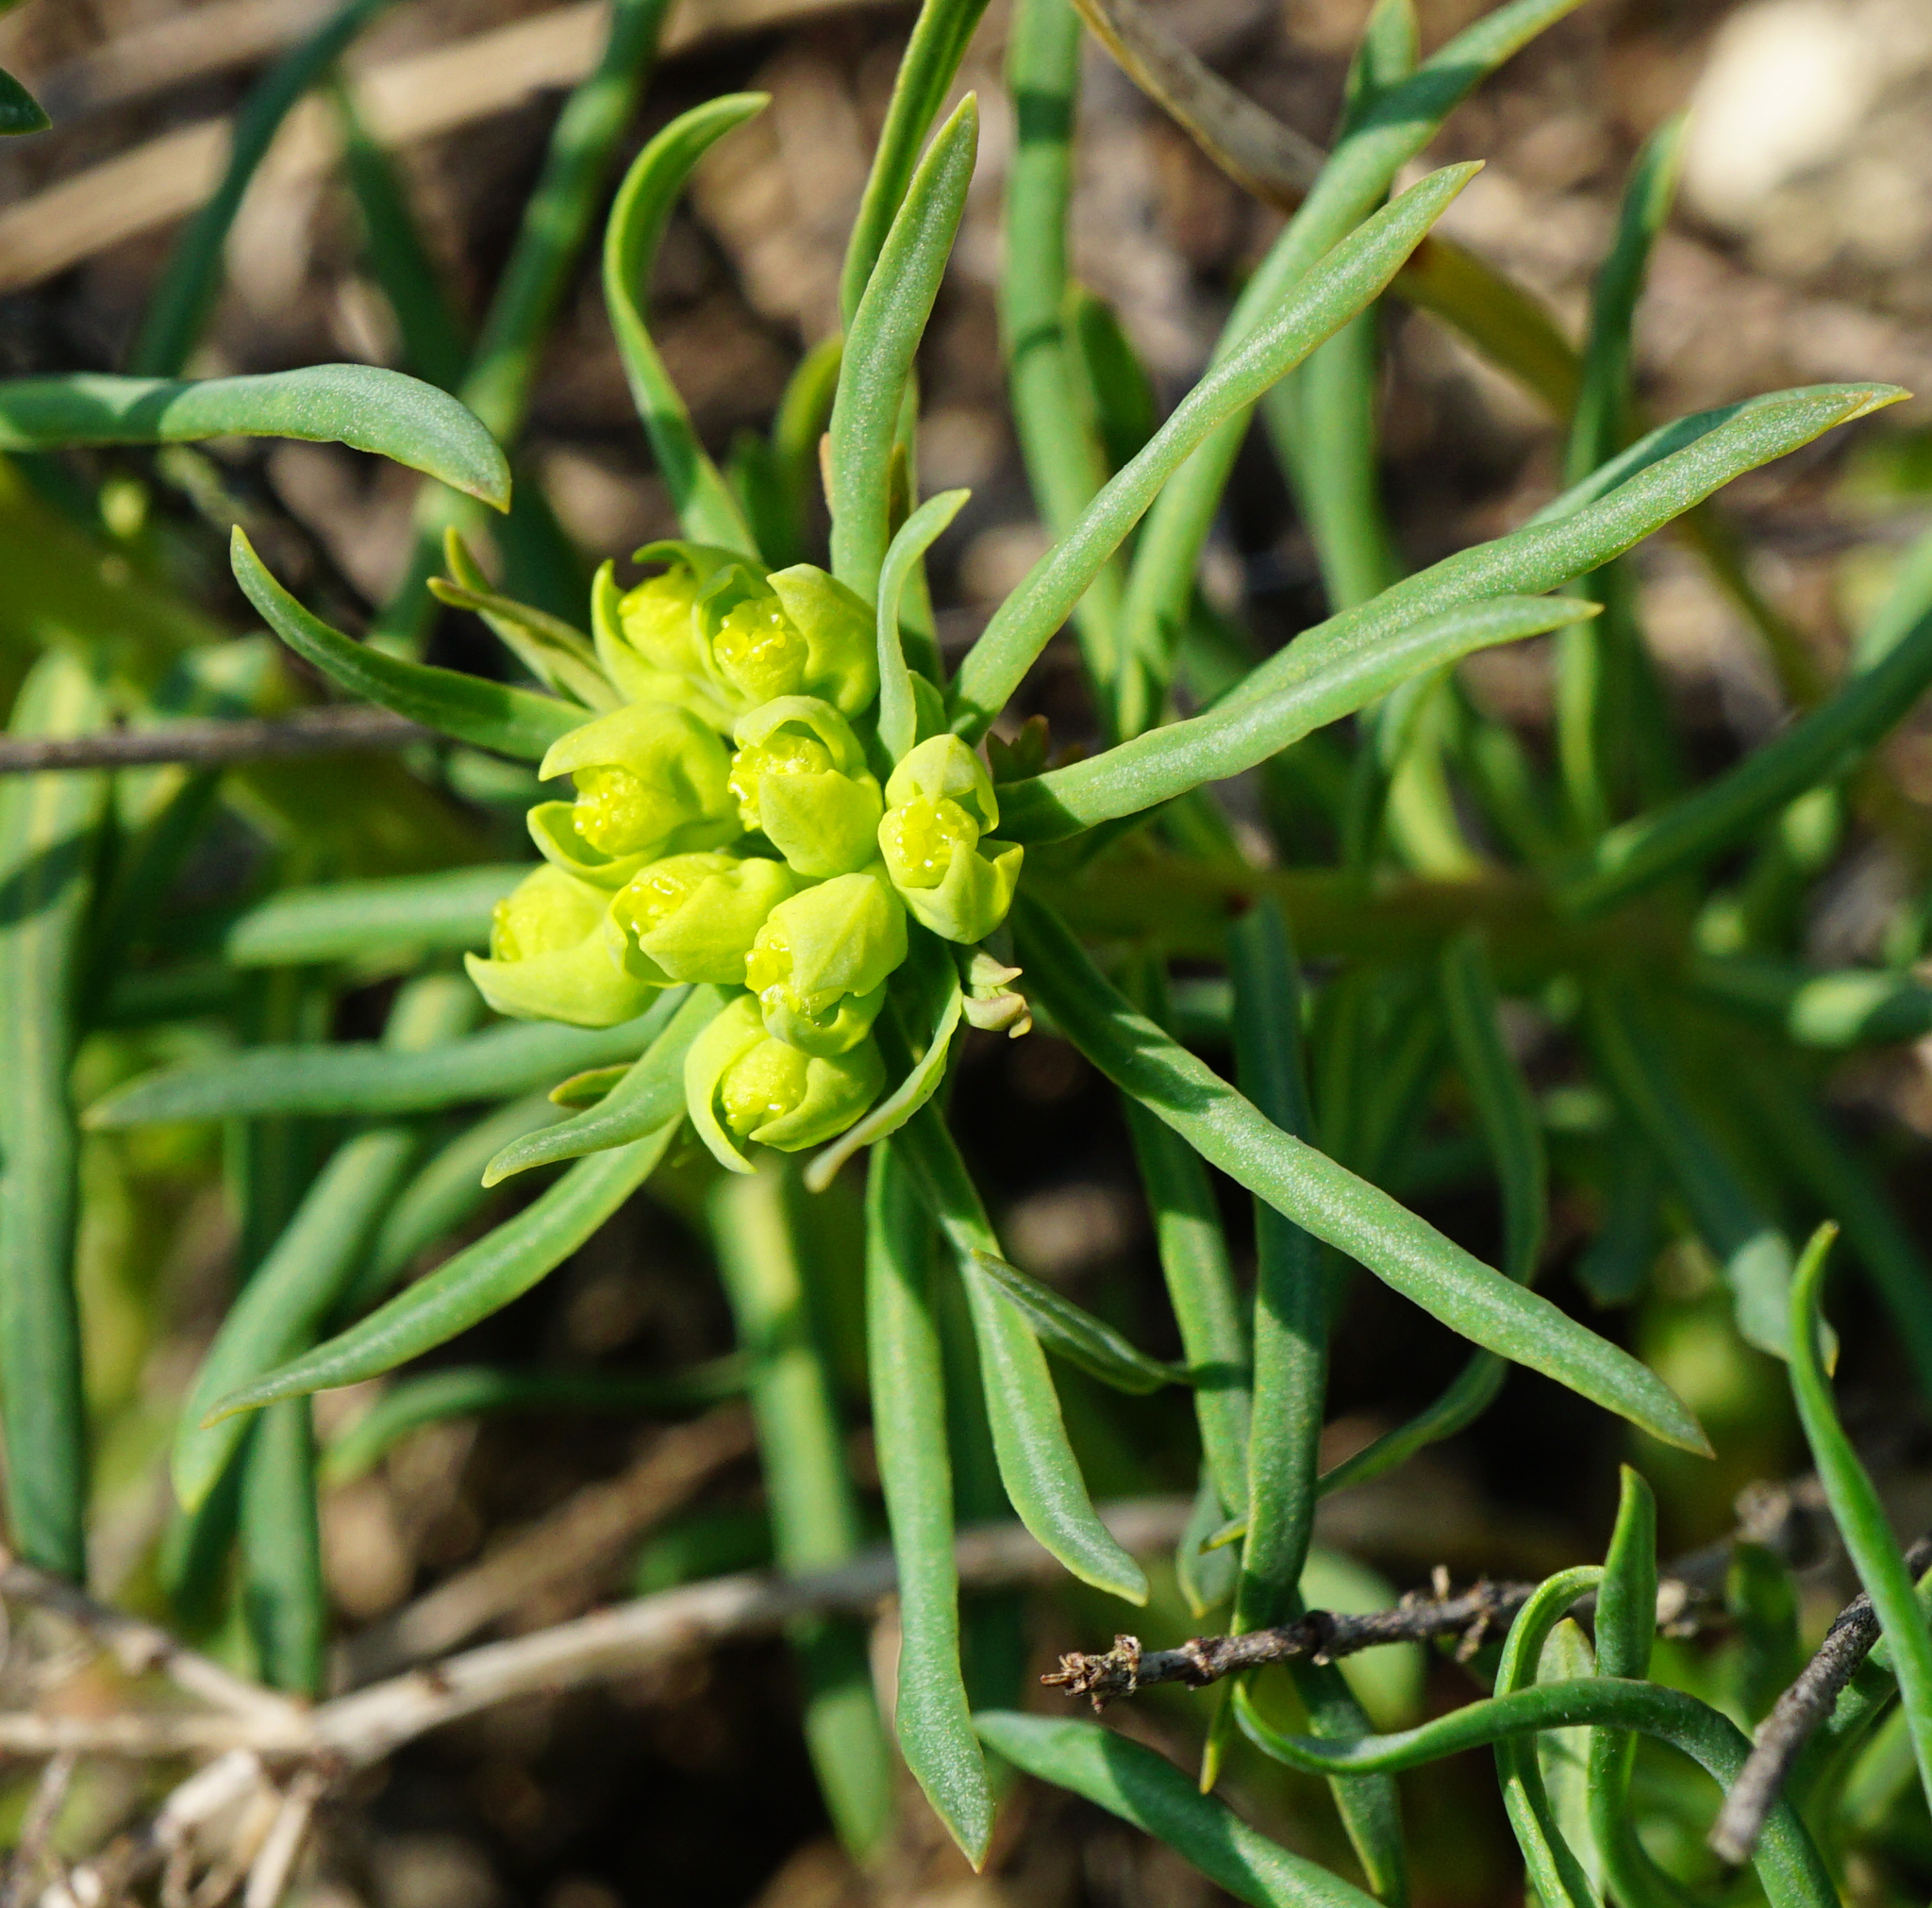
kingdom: Plantae
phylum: Tracheophyta
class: Magnoliopsida
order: Malpighiales
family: Euphorbiaceae
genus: Euphorbia
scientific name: Euphorbia cyparissias
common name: Cypress spurge
